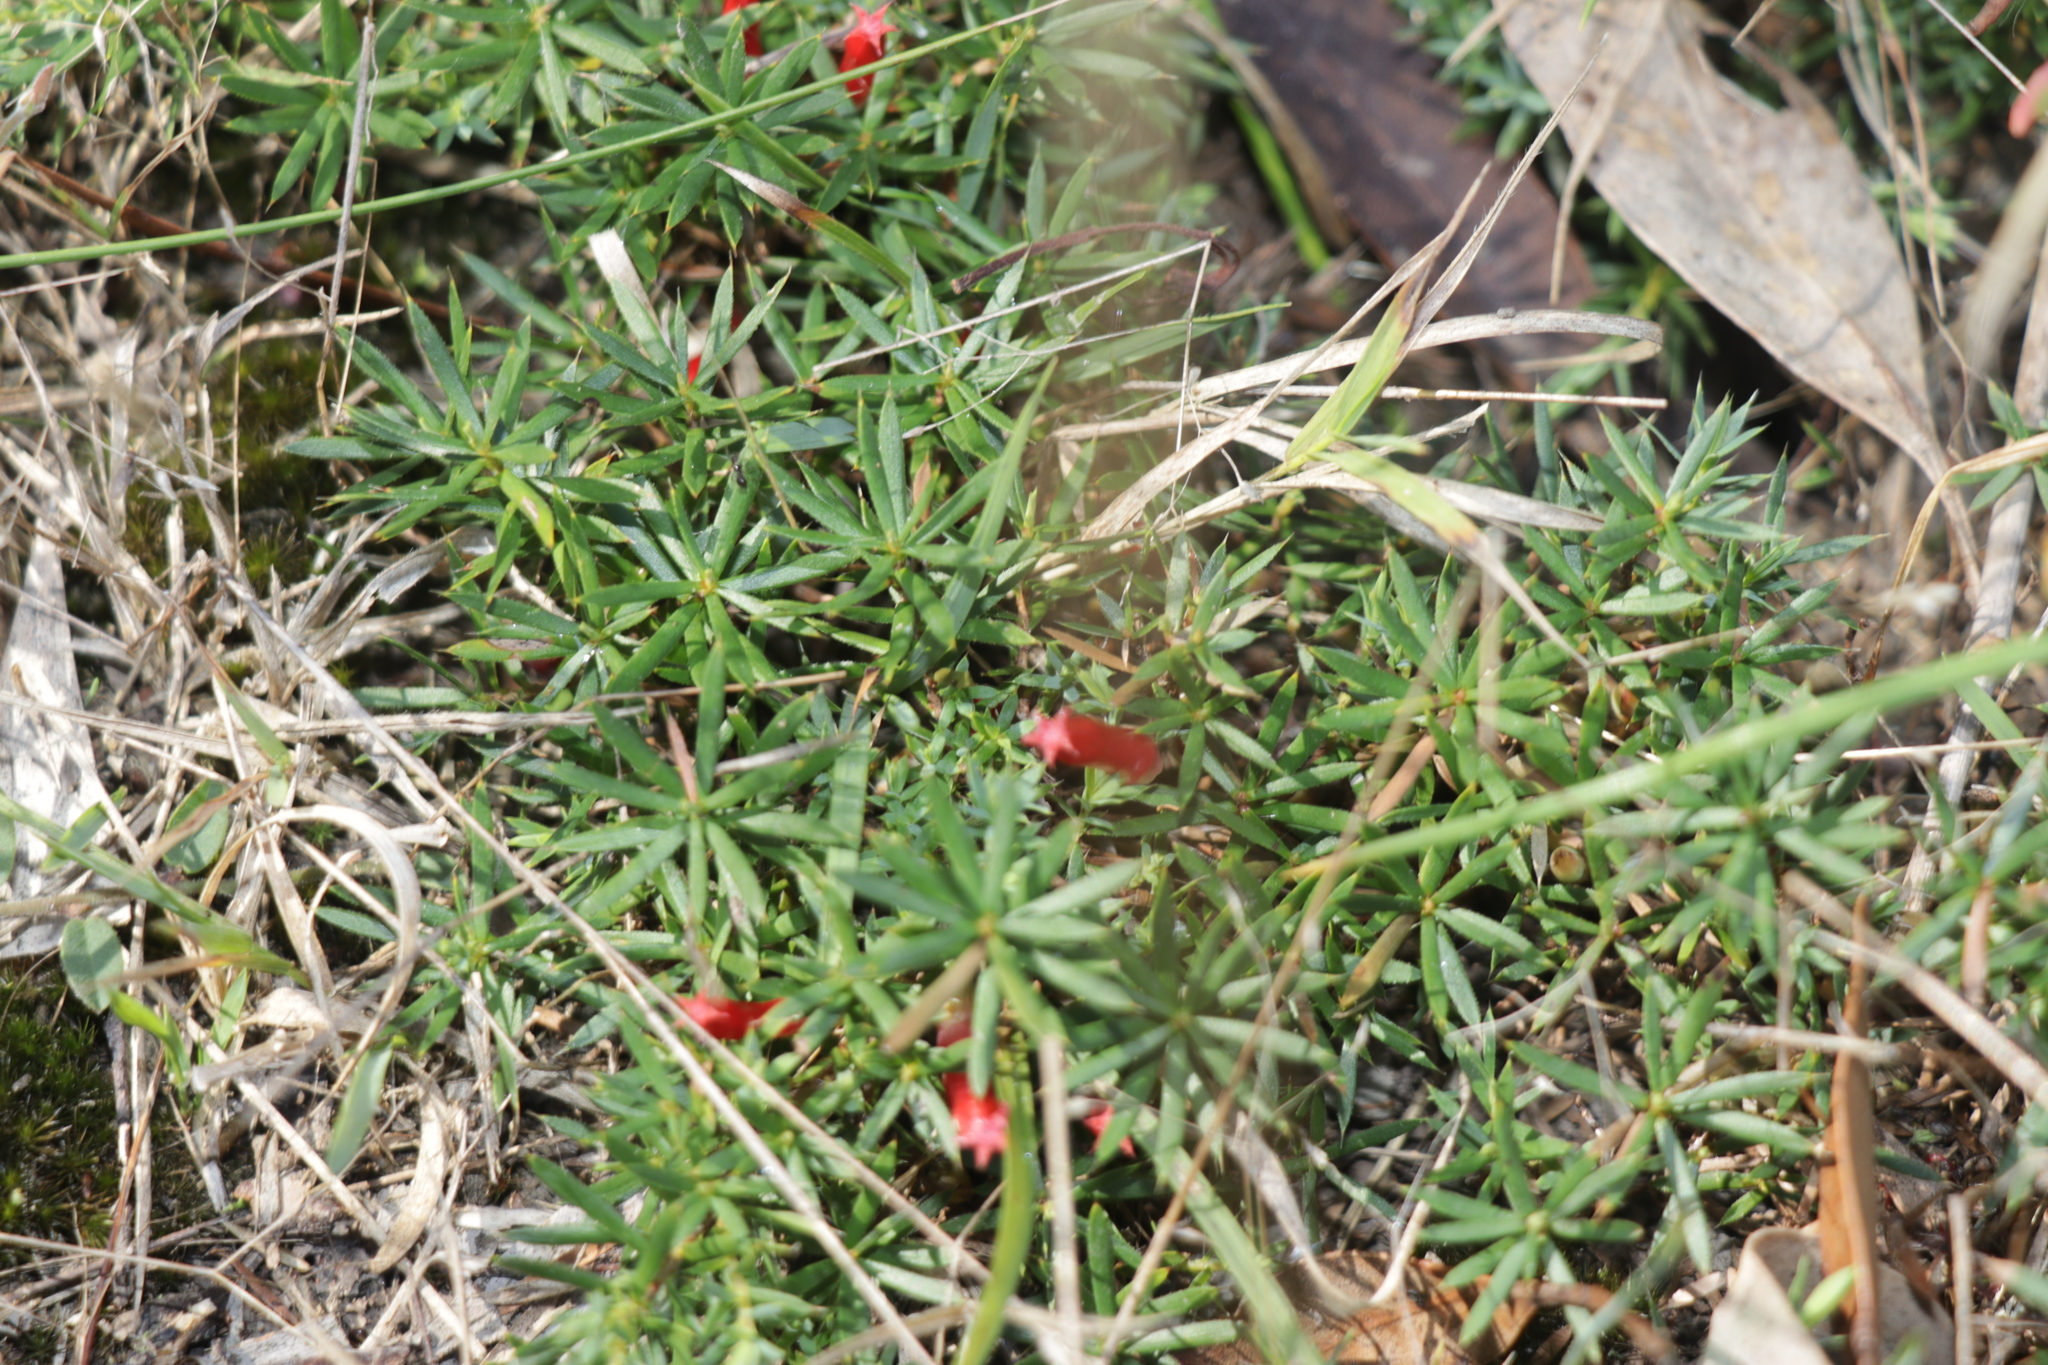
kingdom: Plantae
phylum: Tracheophyta
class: Magnoliopsida
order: Ericales
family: Ericaceae
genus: Styphelia
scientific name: Styphelia humifusa
